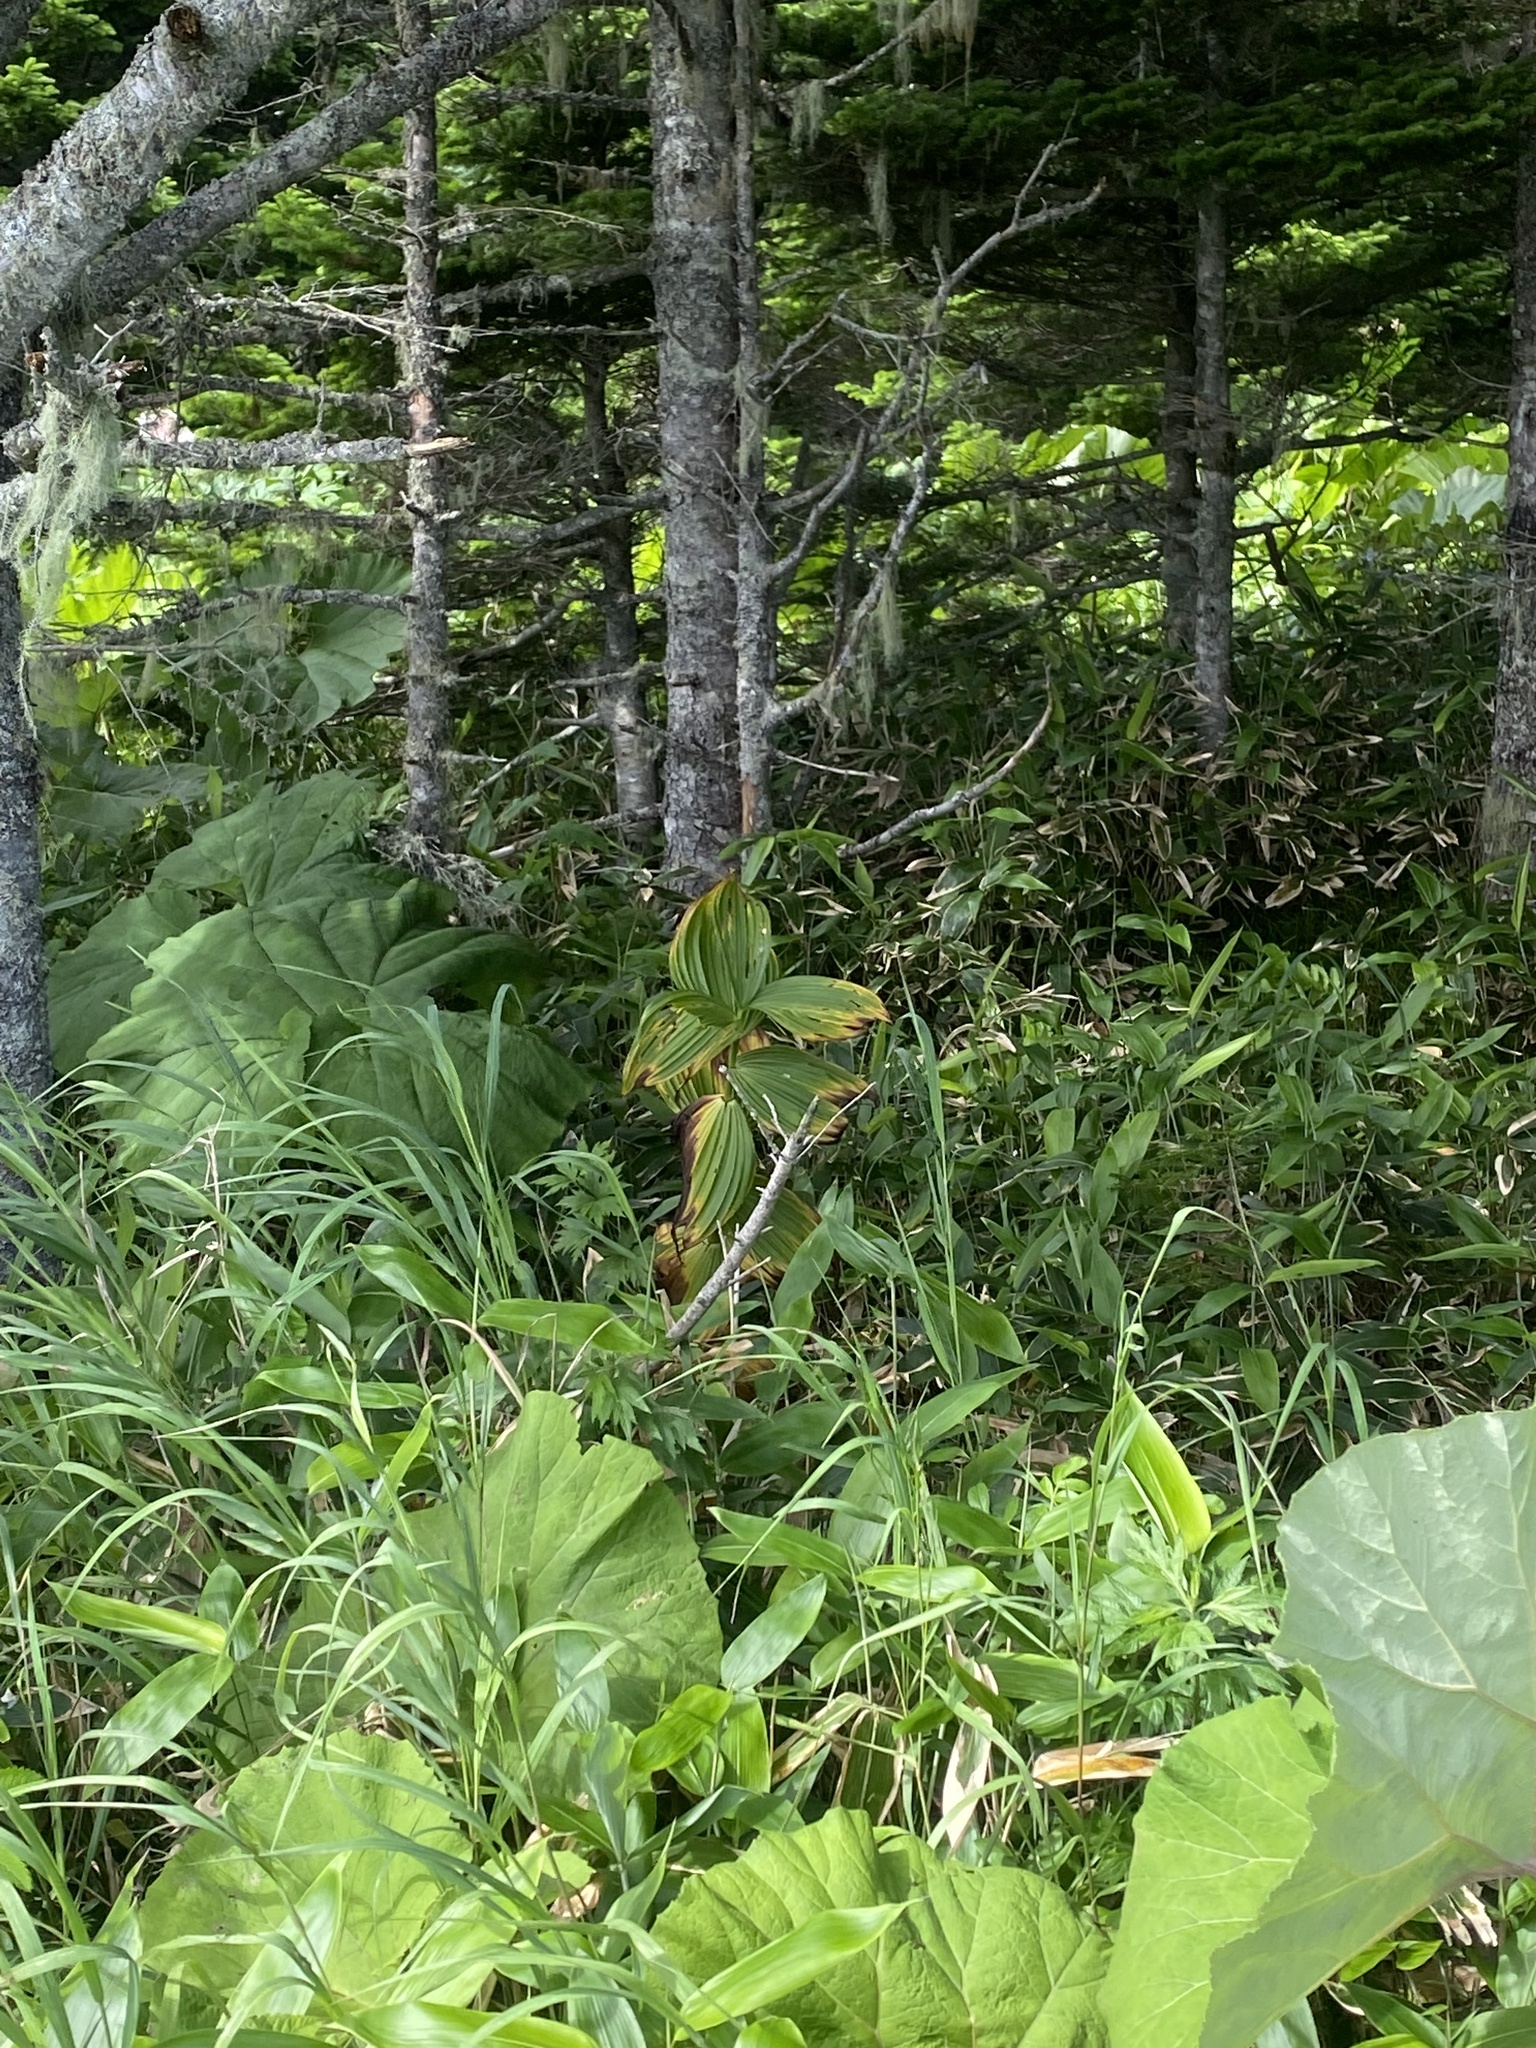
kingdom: Plantae
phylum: Tracheophyta
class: Liliopsida
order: Liliales
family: Melanthiaceae
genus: Veratrum
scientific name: Veratrum lobelianum
